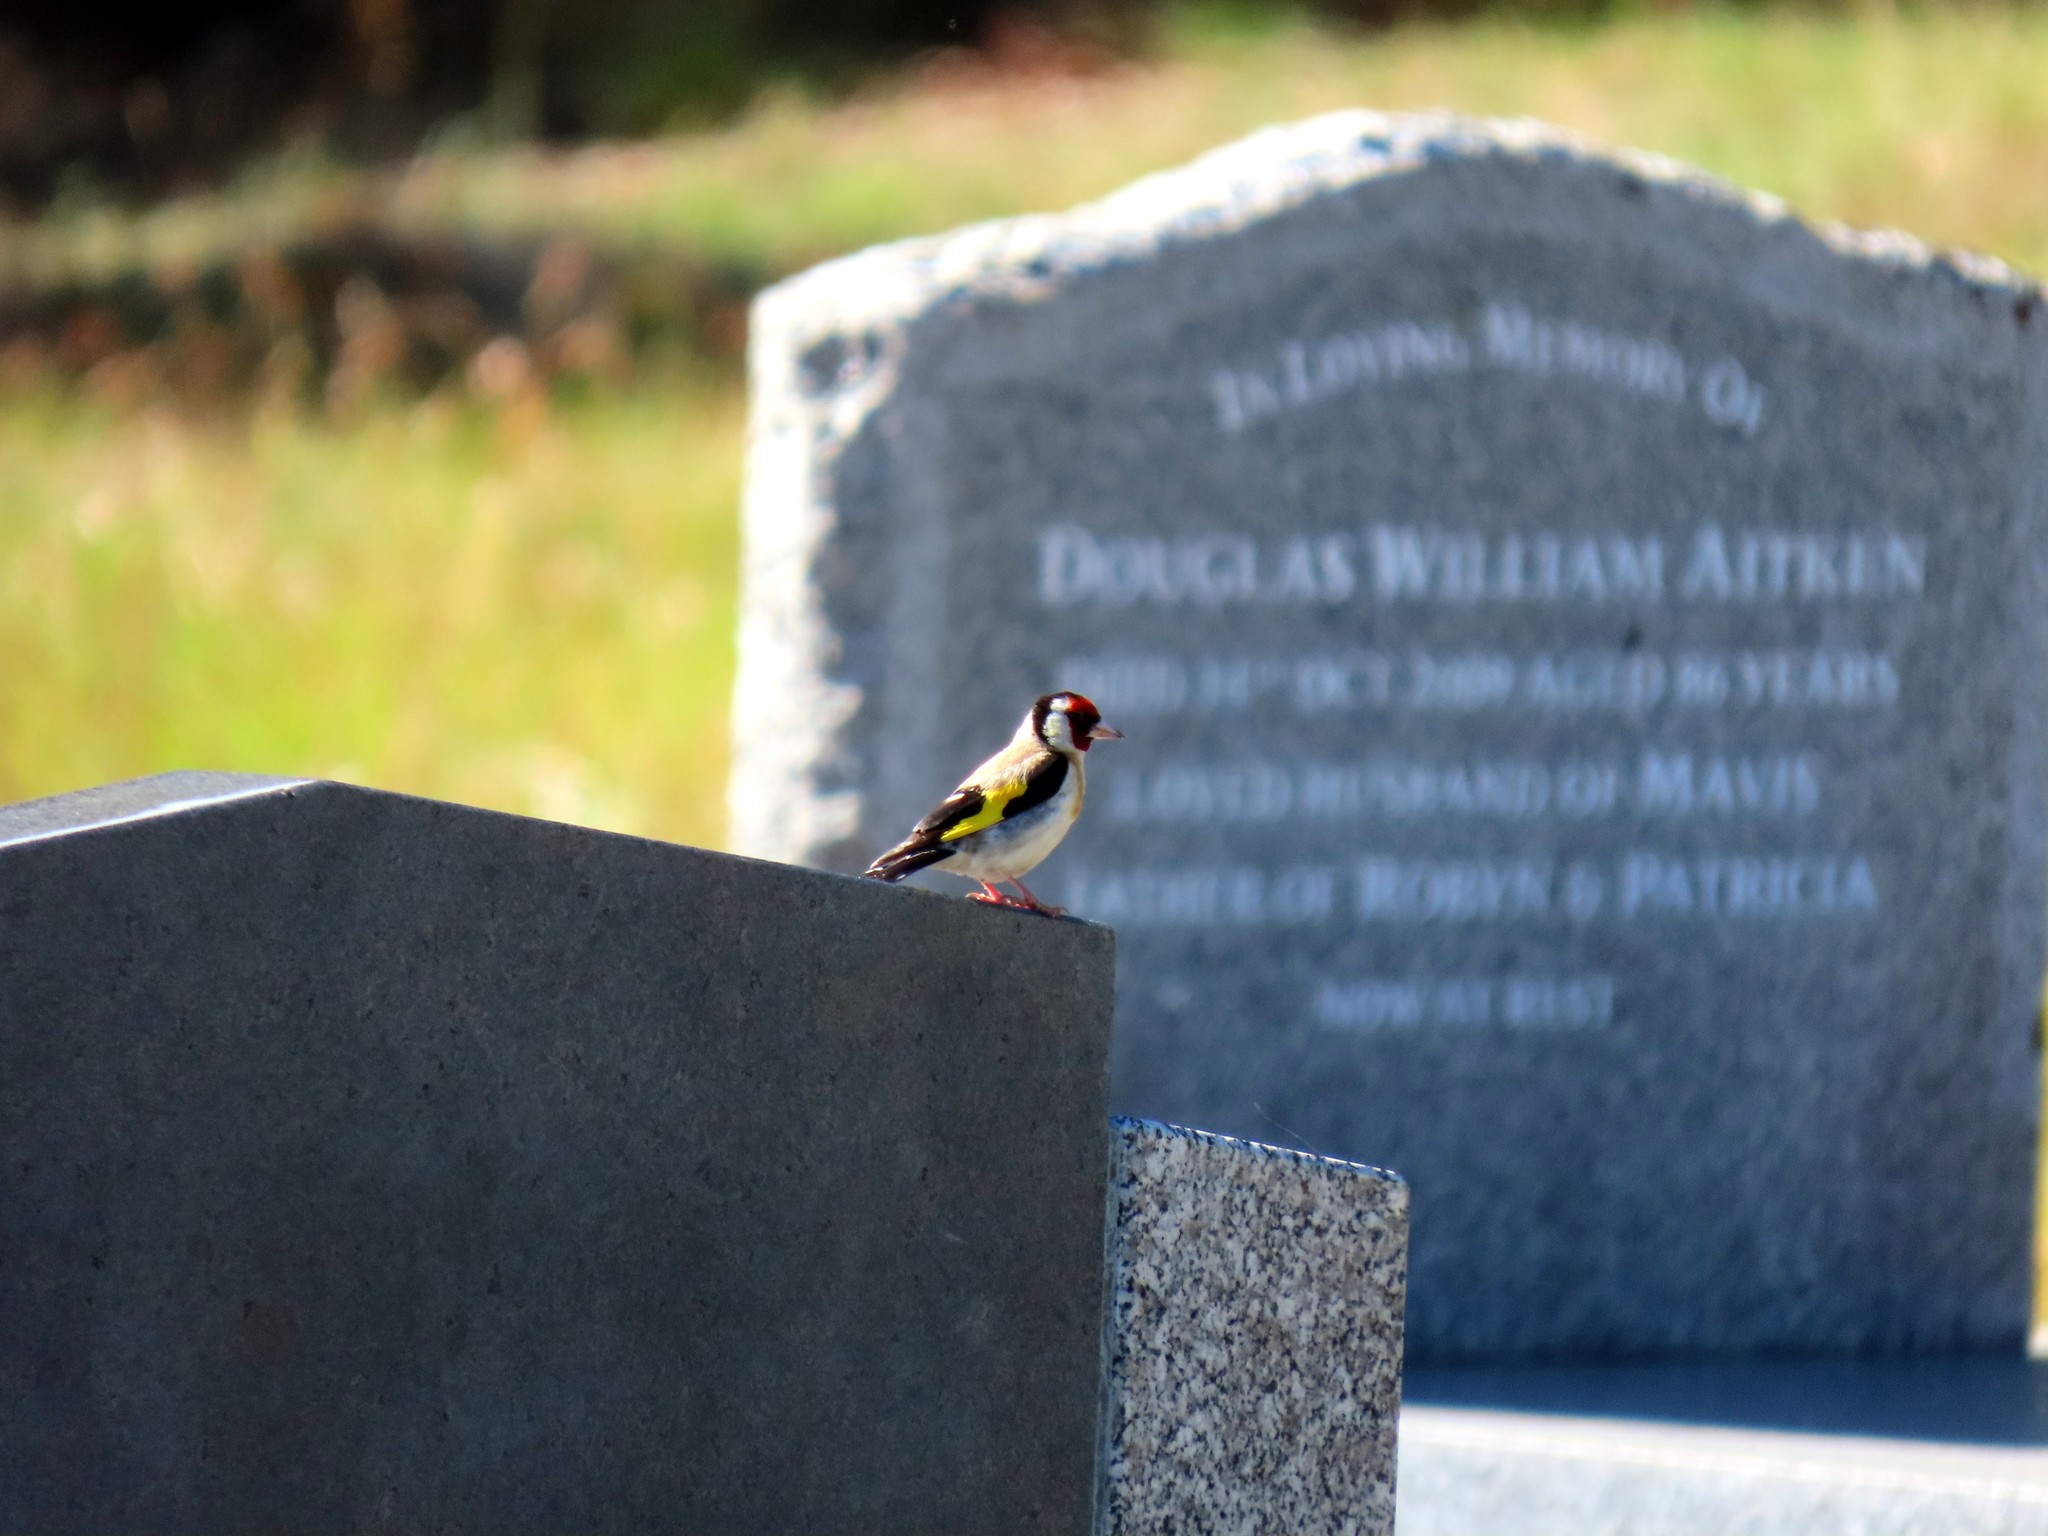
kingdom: Animalia
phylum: Chordata
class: Aves
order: Passeriformes
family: Fringillidae
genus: Carduelis
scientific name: Carduelis carduelis
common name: European goldfinch
